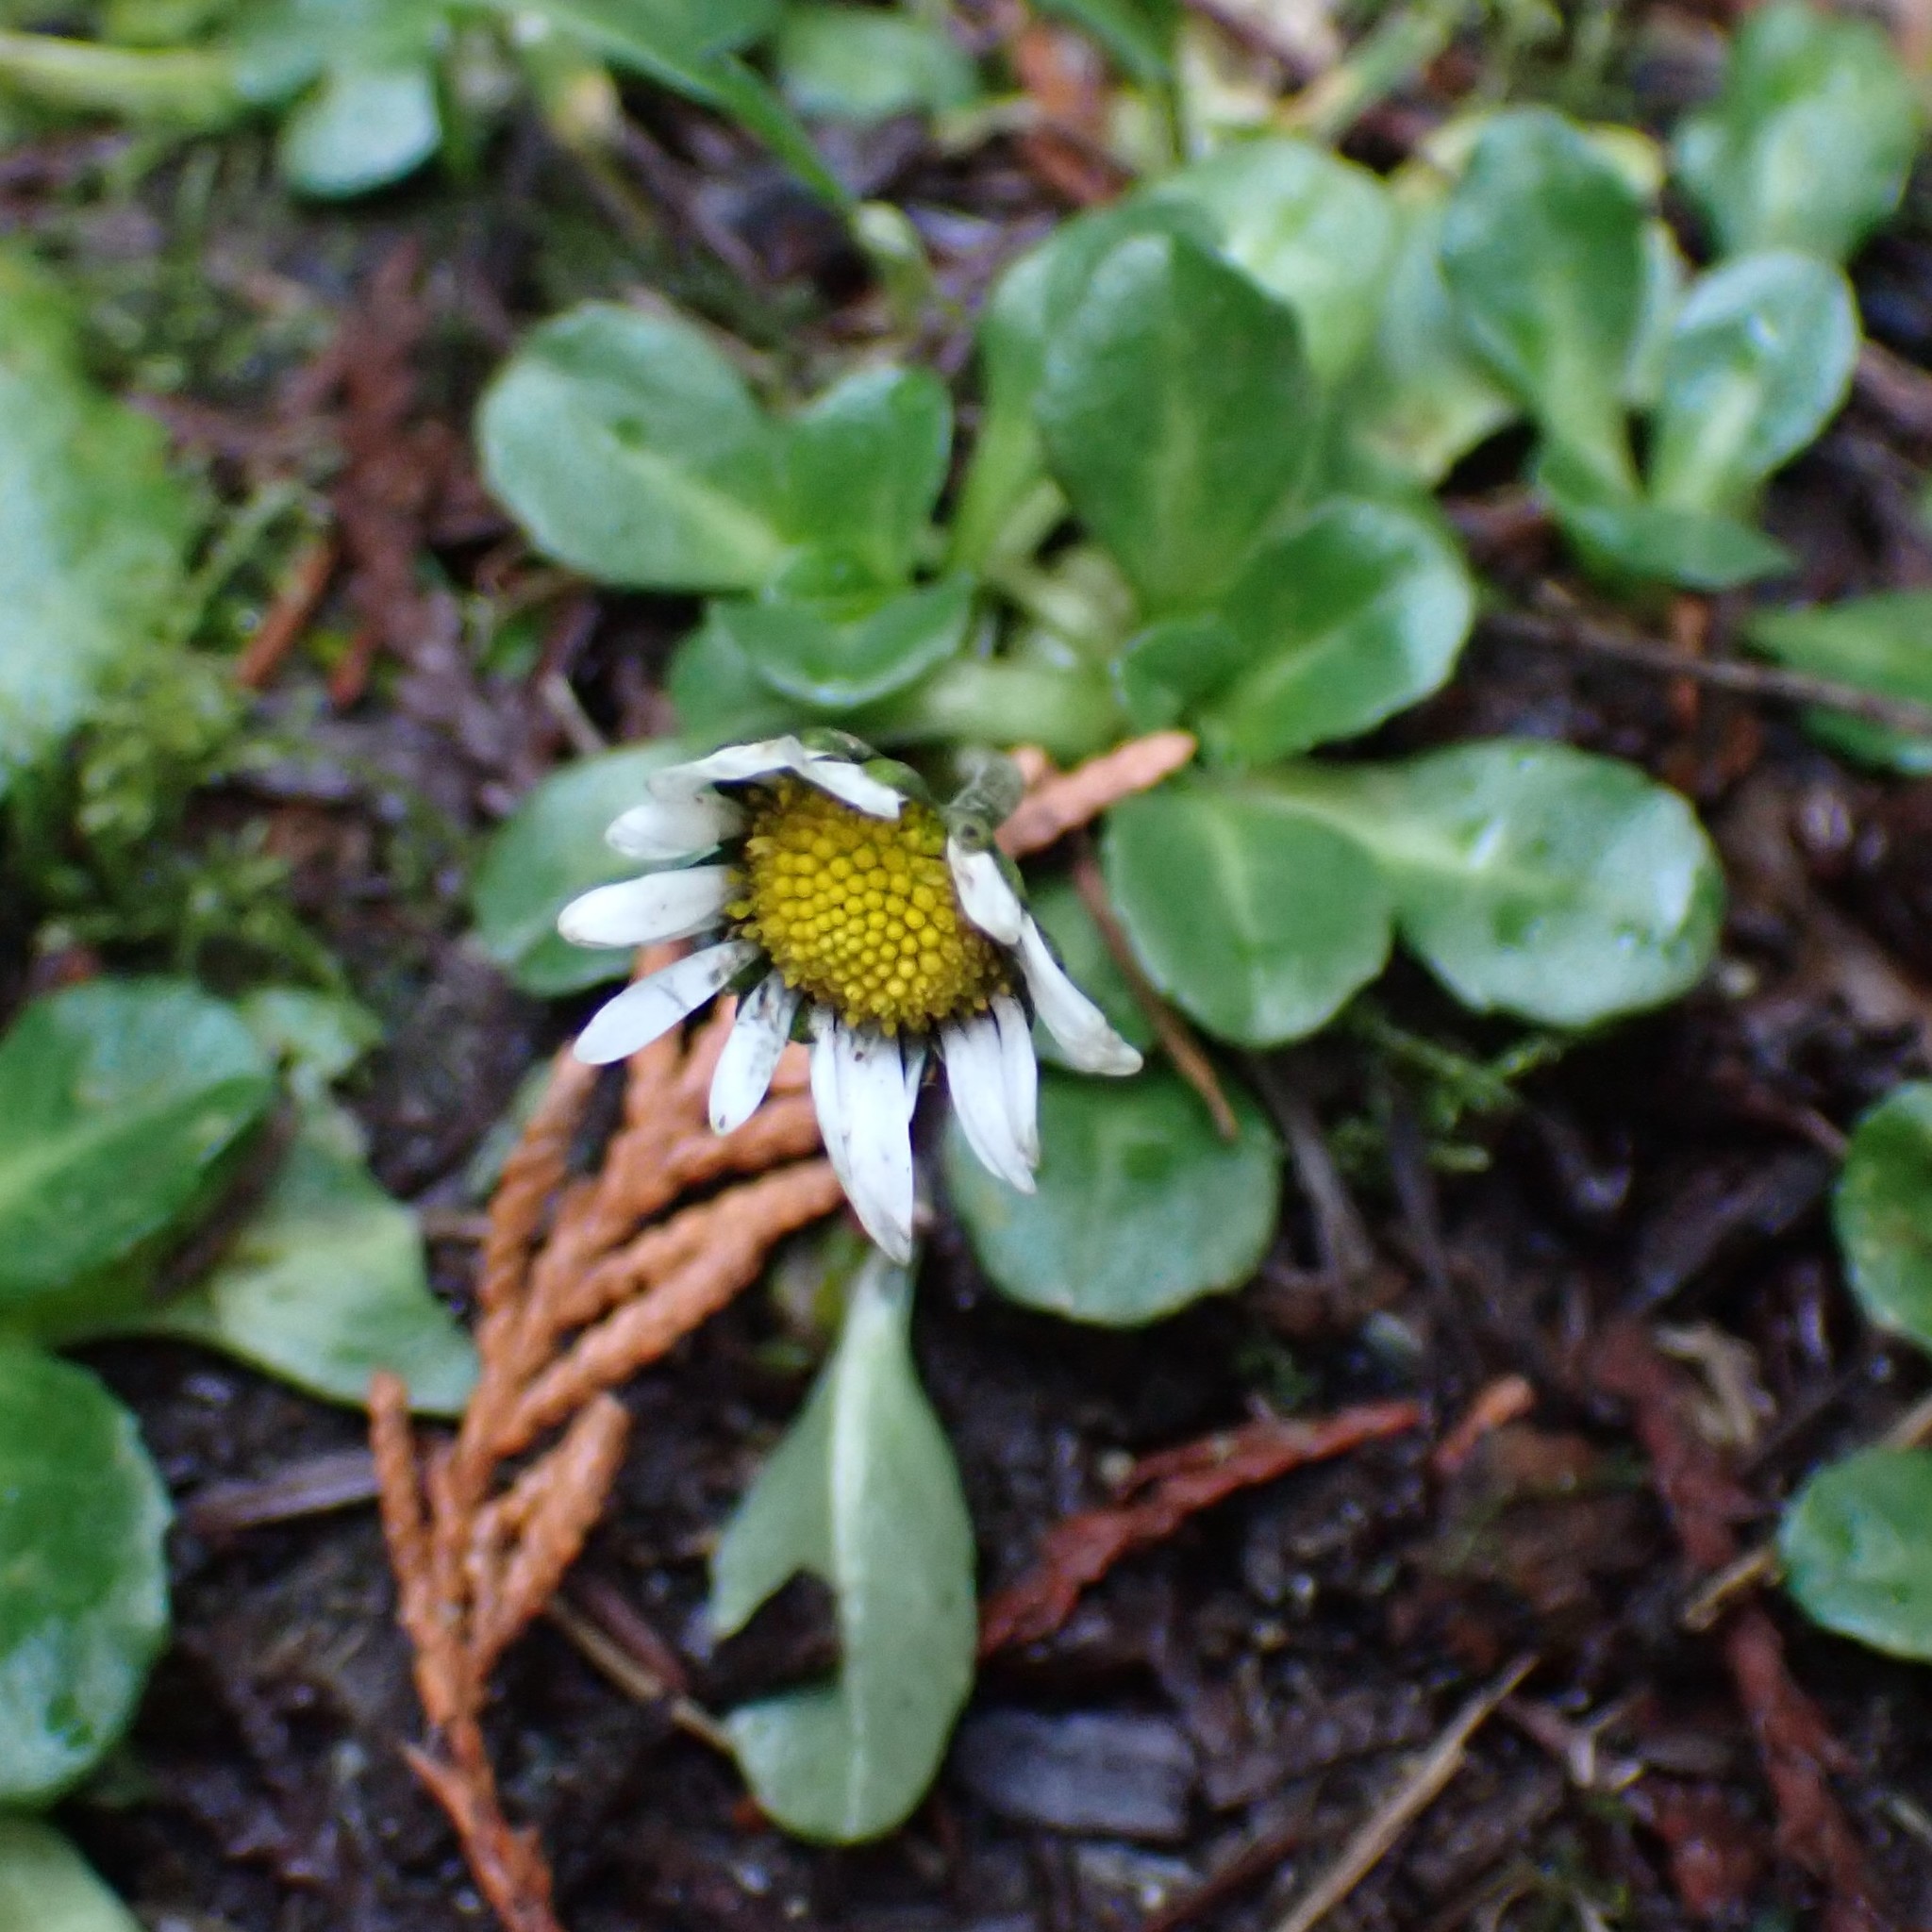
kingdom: Plantae
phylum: Tracheophyta
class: Magnoliopsida
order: Asterales
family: Asteraceae
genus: Bellis
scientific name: Bellis perennis
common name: Lawndaisy
